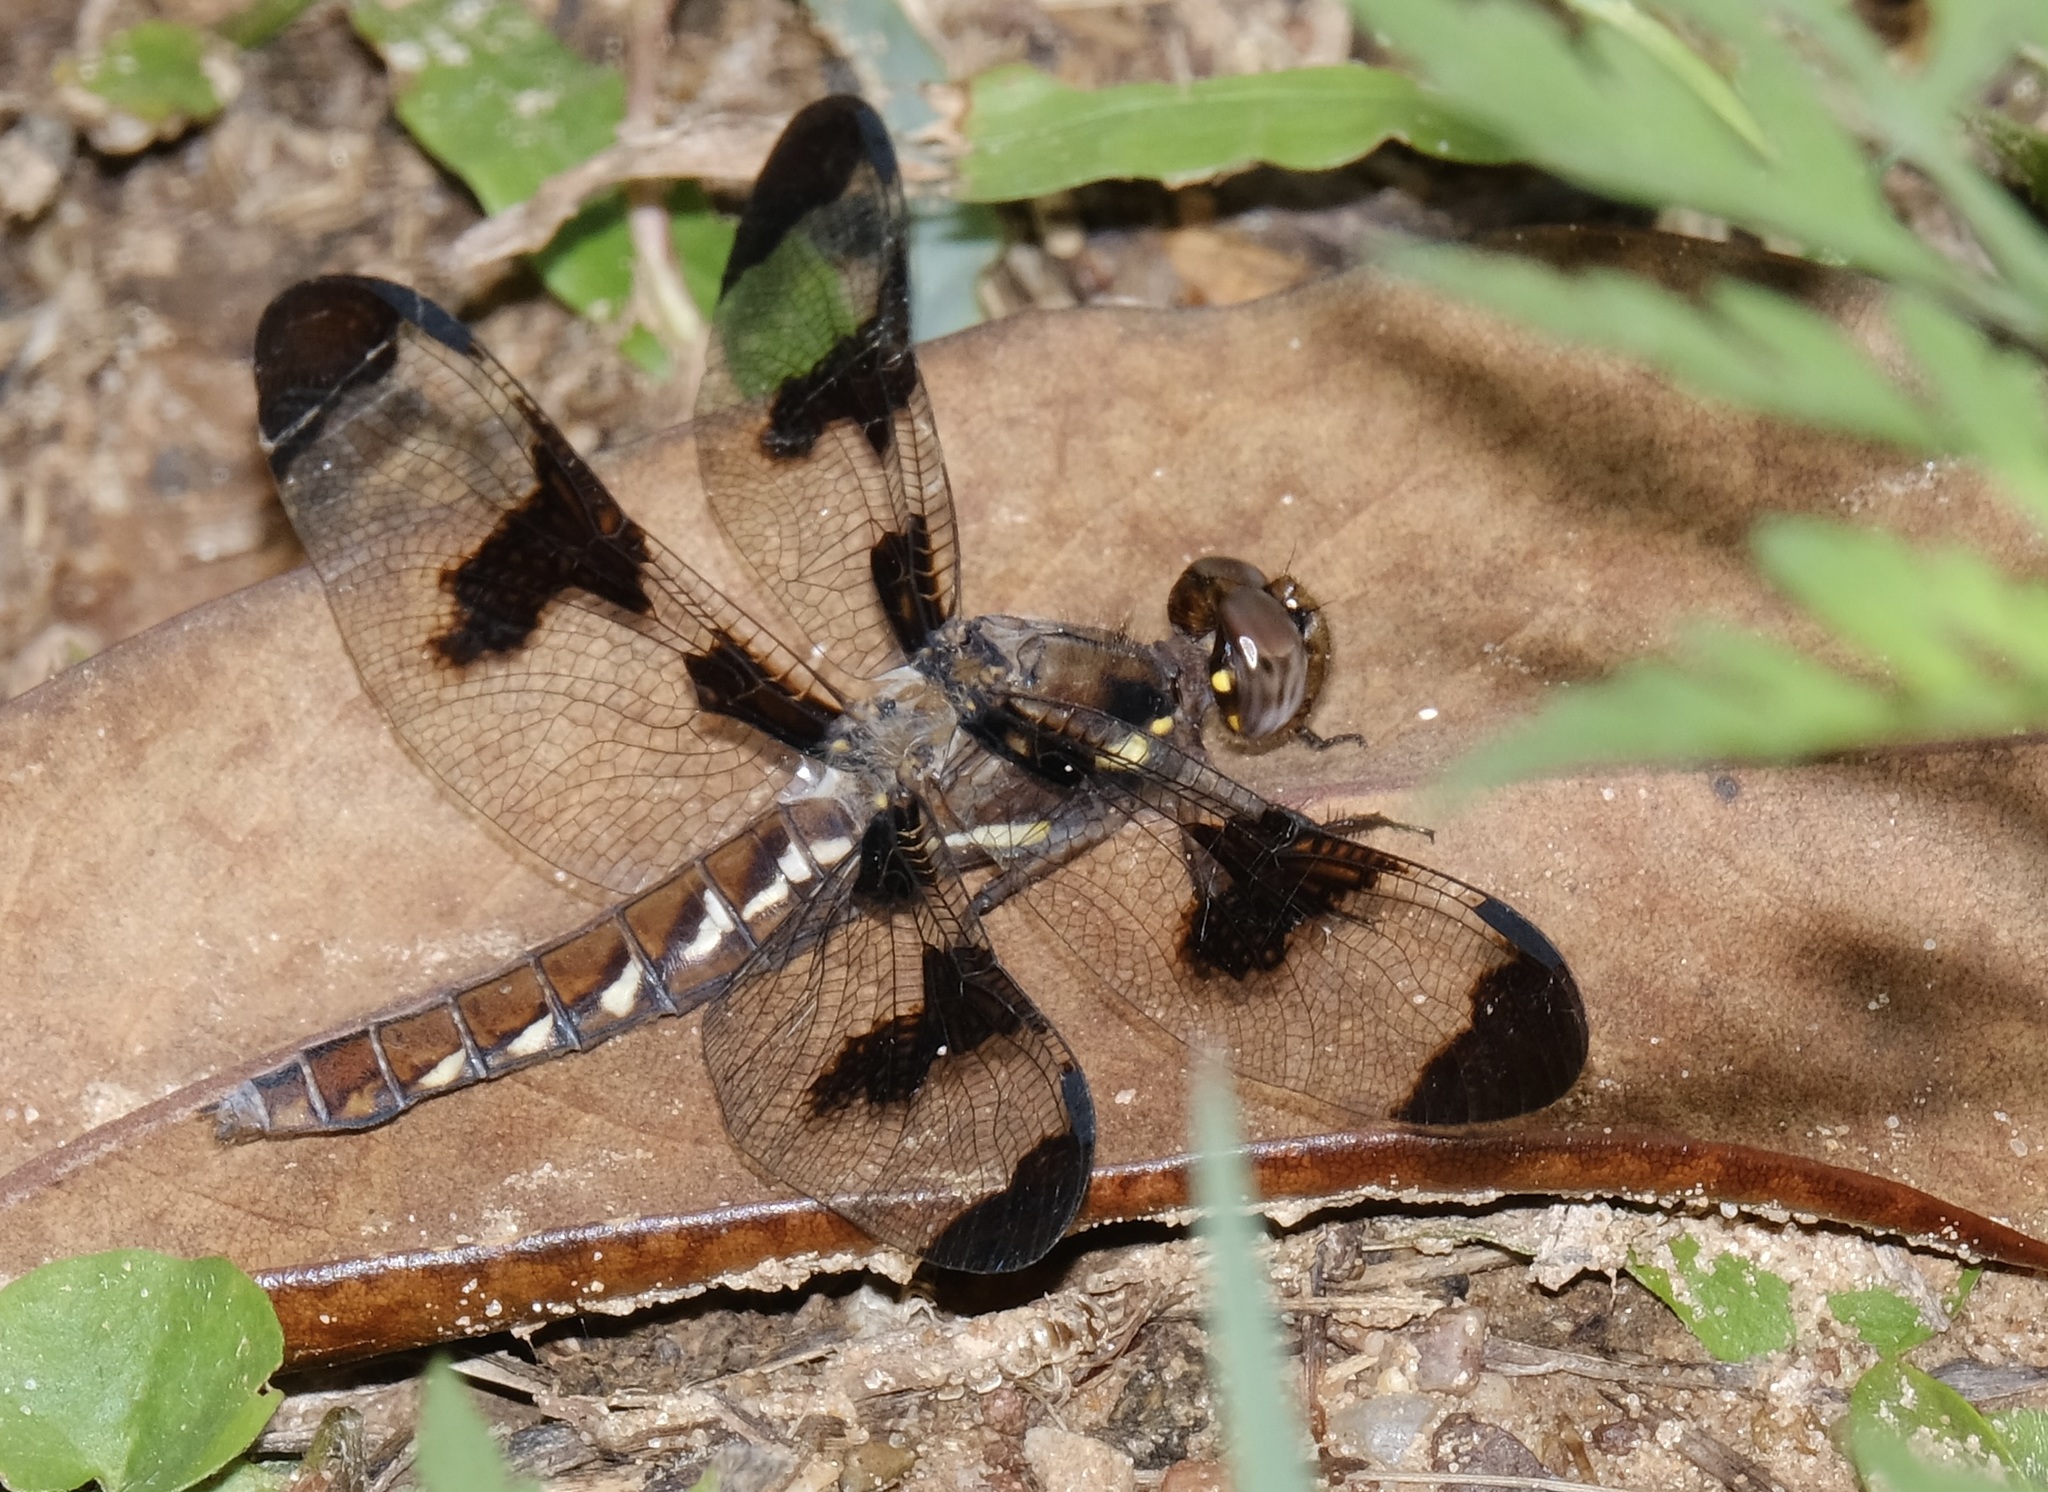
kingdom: Animalia
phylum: Arthropoda
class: Insecta
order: Odonata
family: Libellulidae
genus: Plathemis
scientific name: Plathemis lydia
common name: Common whitetail
